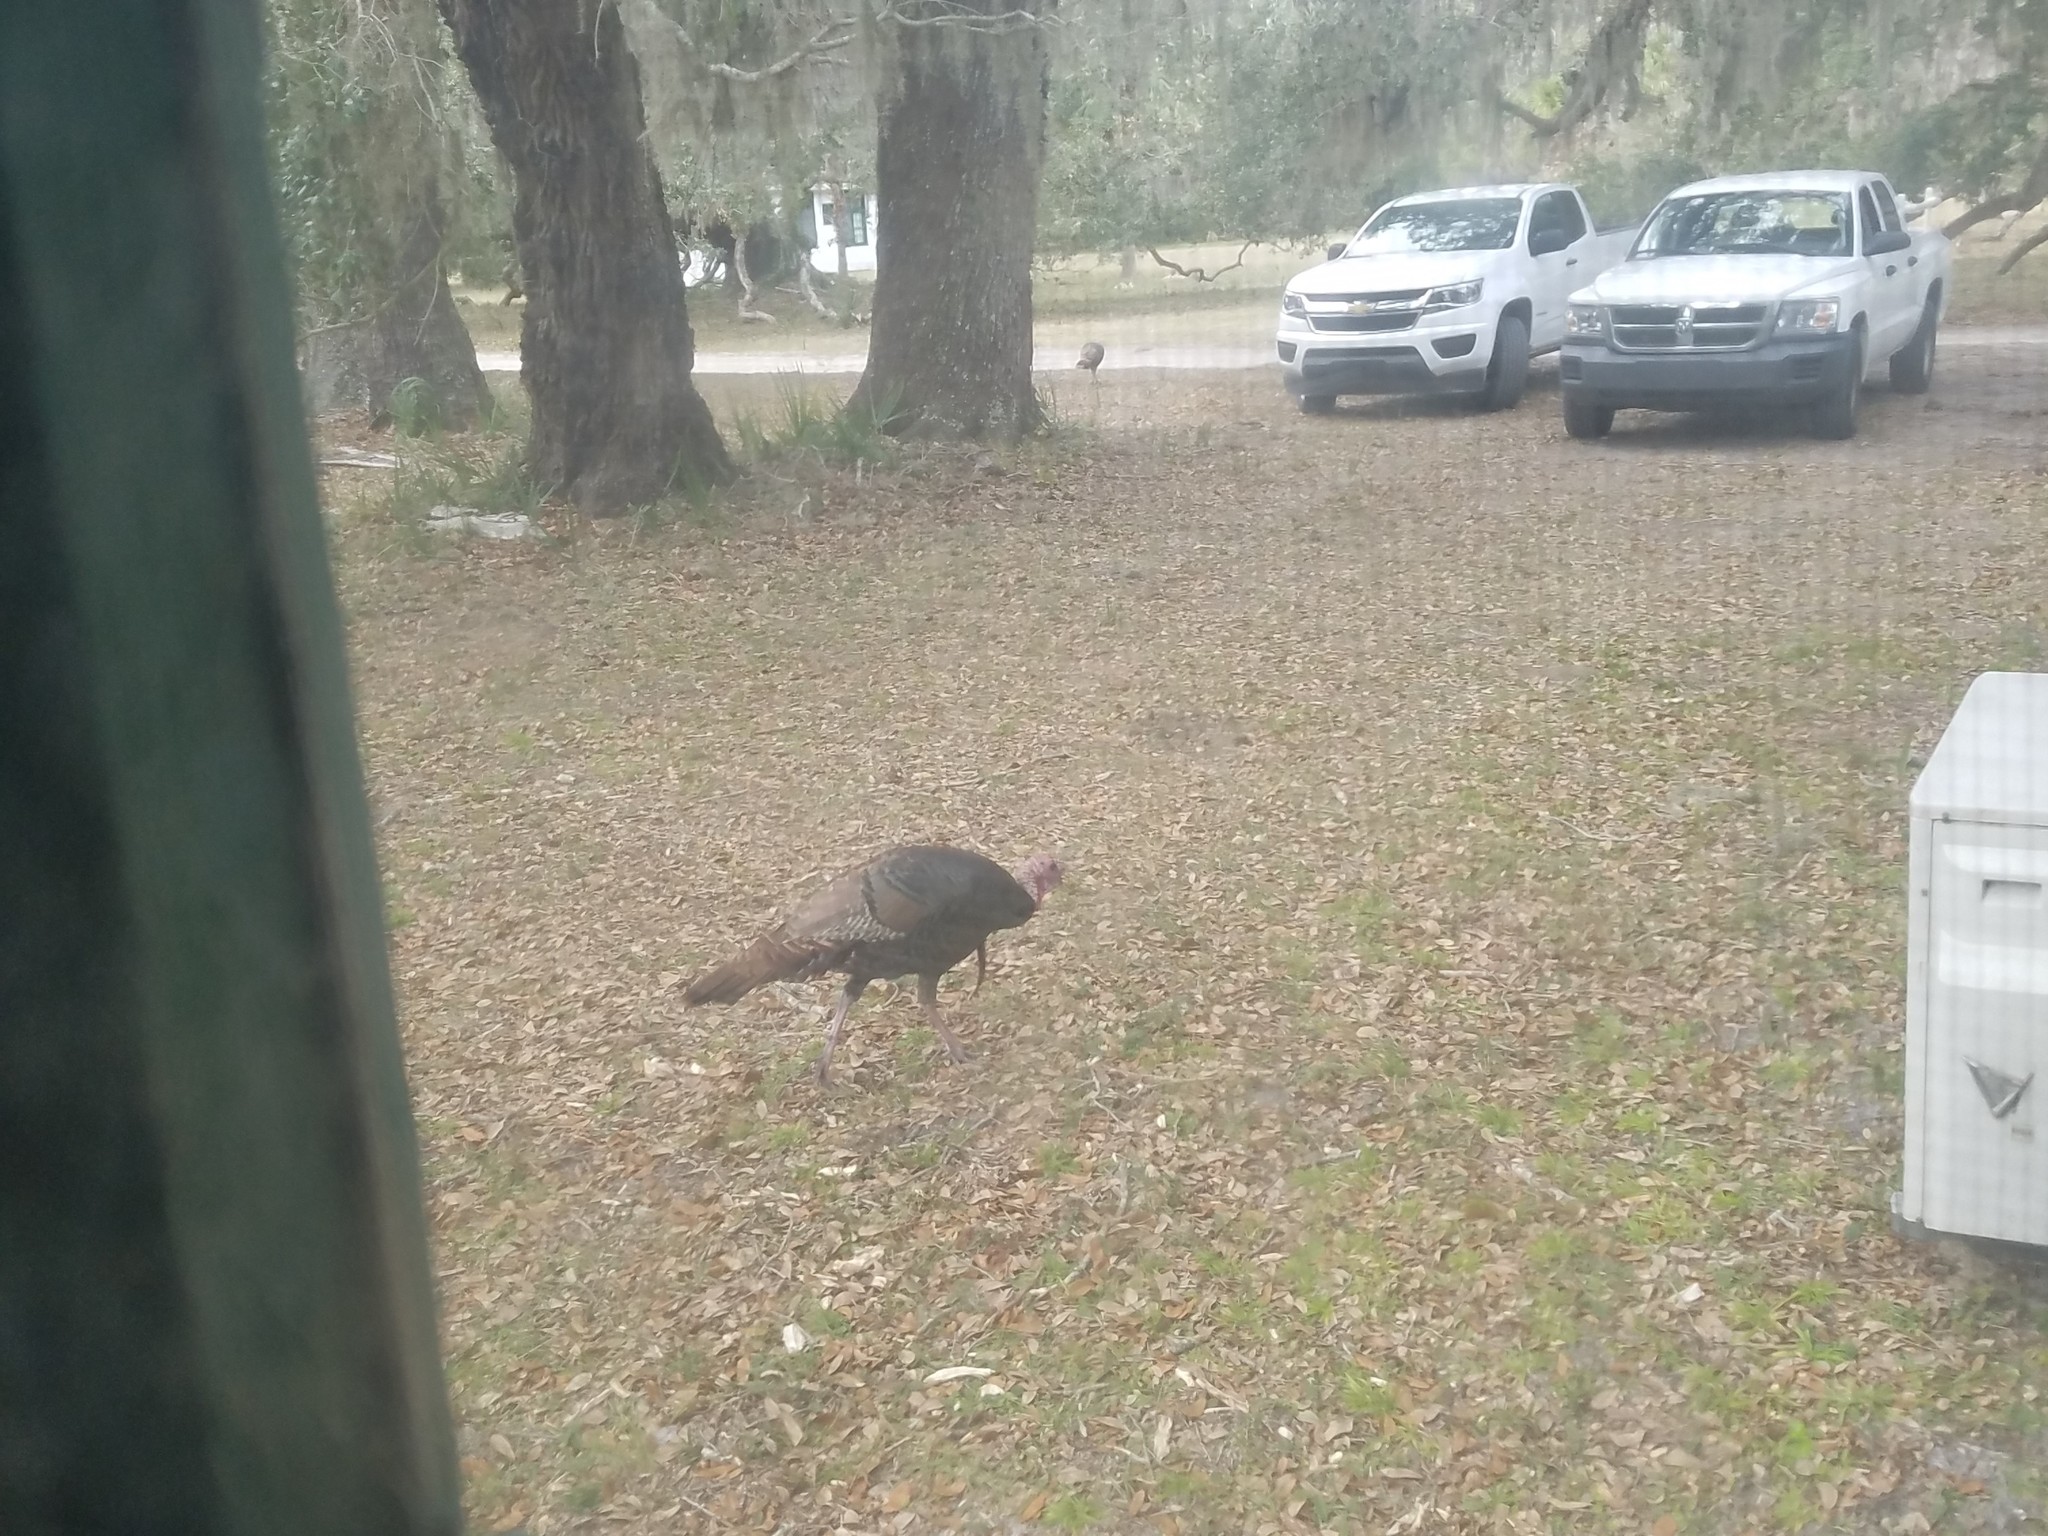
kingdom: Animalia
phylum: Chordata
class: Aves
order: Galliformes
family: Phasianidae
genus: Meleagris
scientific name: Meleagris gallopavo
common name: Wild turkey
